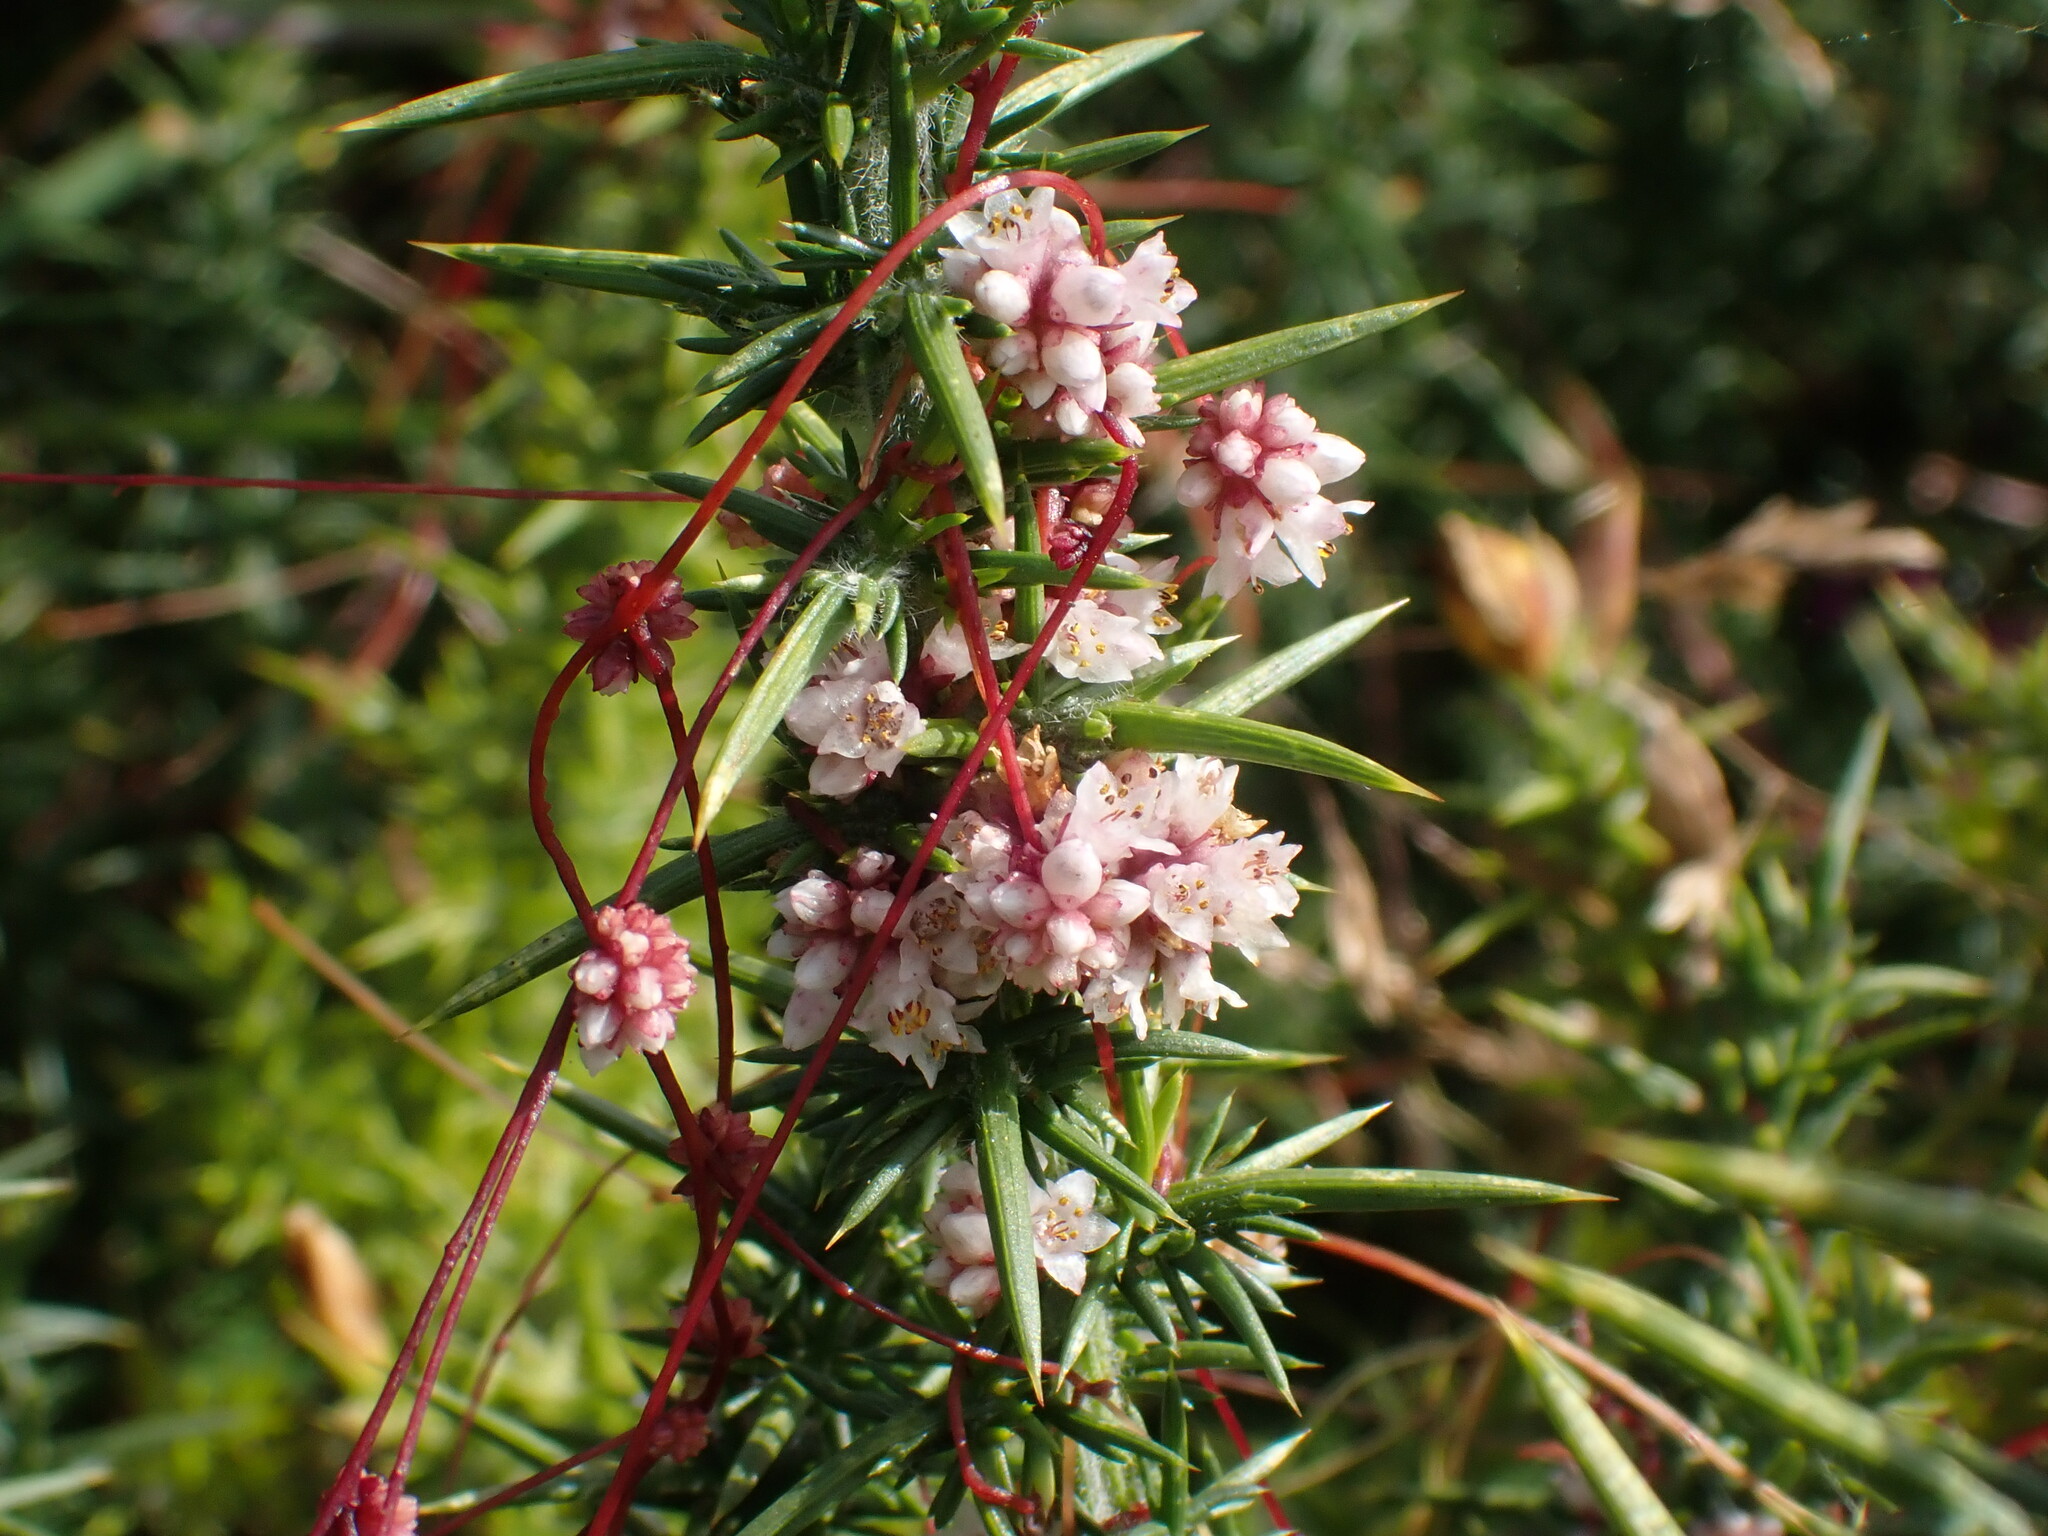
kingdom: Plantae
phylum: Tracheophyta
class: Magnoliopsida
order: Solanales
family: Convolvulaceae
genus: Cuscuta
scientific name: Cuscuta epithymum
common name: Clover dodder
